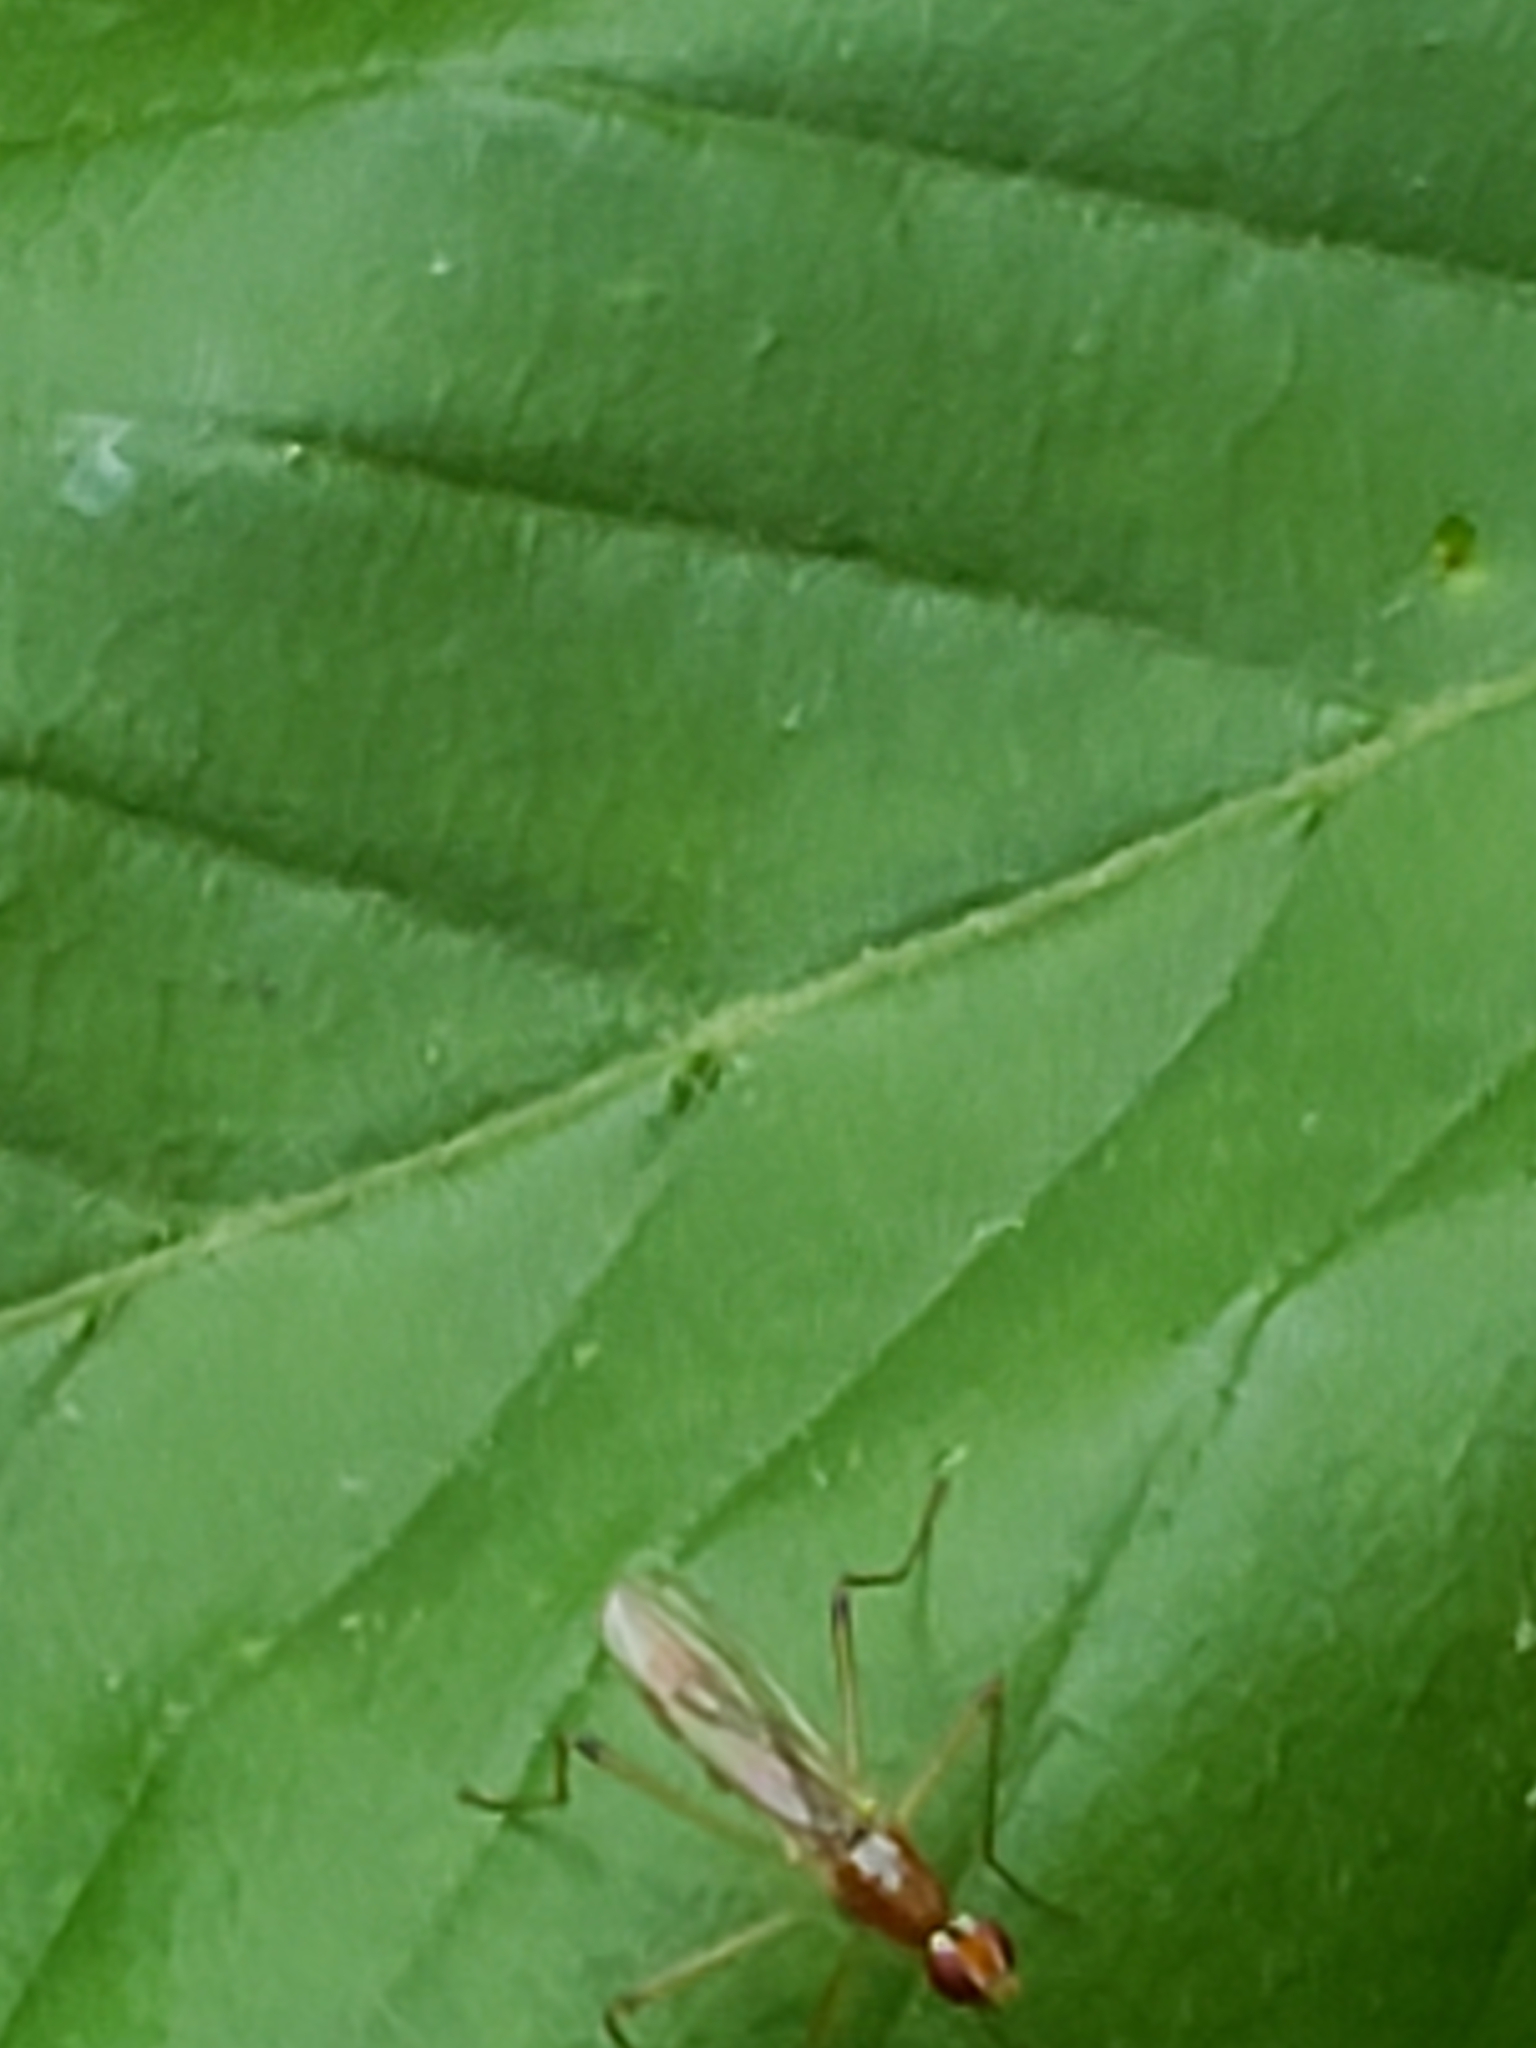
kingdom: Animalia
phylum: Arthropoda
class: Insecta
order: Diptera
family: Micropezidae
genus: Compsobata
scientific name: Compsobata univitta
